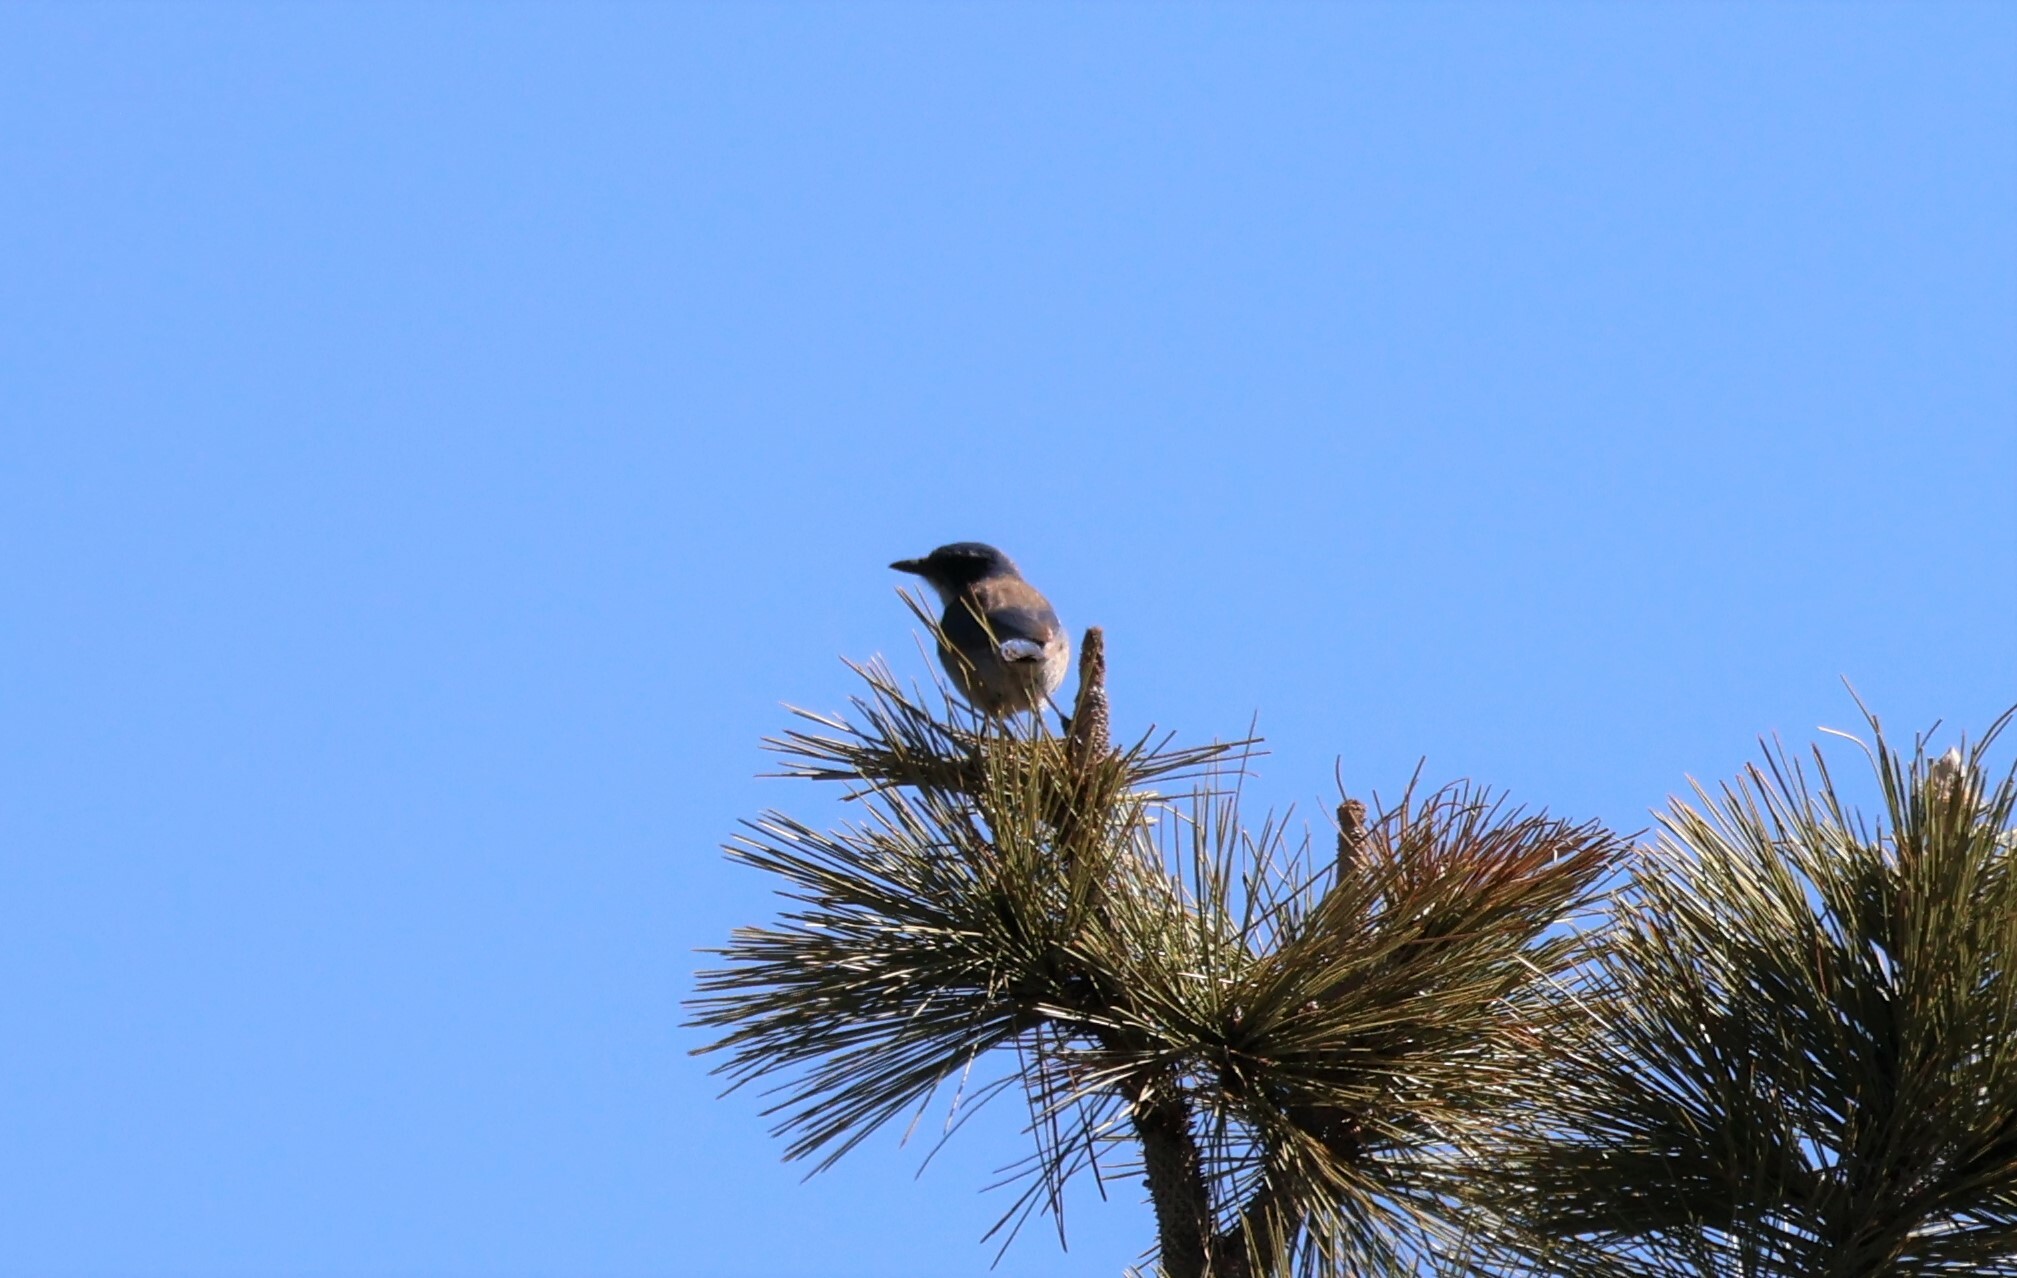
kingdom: Animalia
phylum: Chordata
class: Aves
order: Passeriformes
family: Corvidae
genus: Aphelocoma
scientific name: Aphelocoma californica
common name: California scrub-jay
